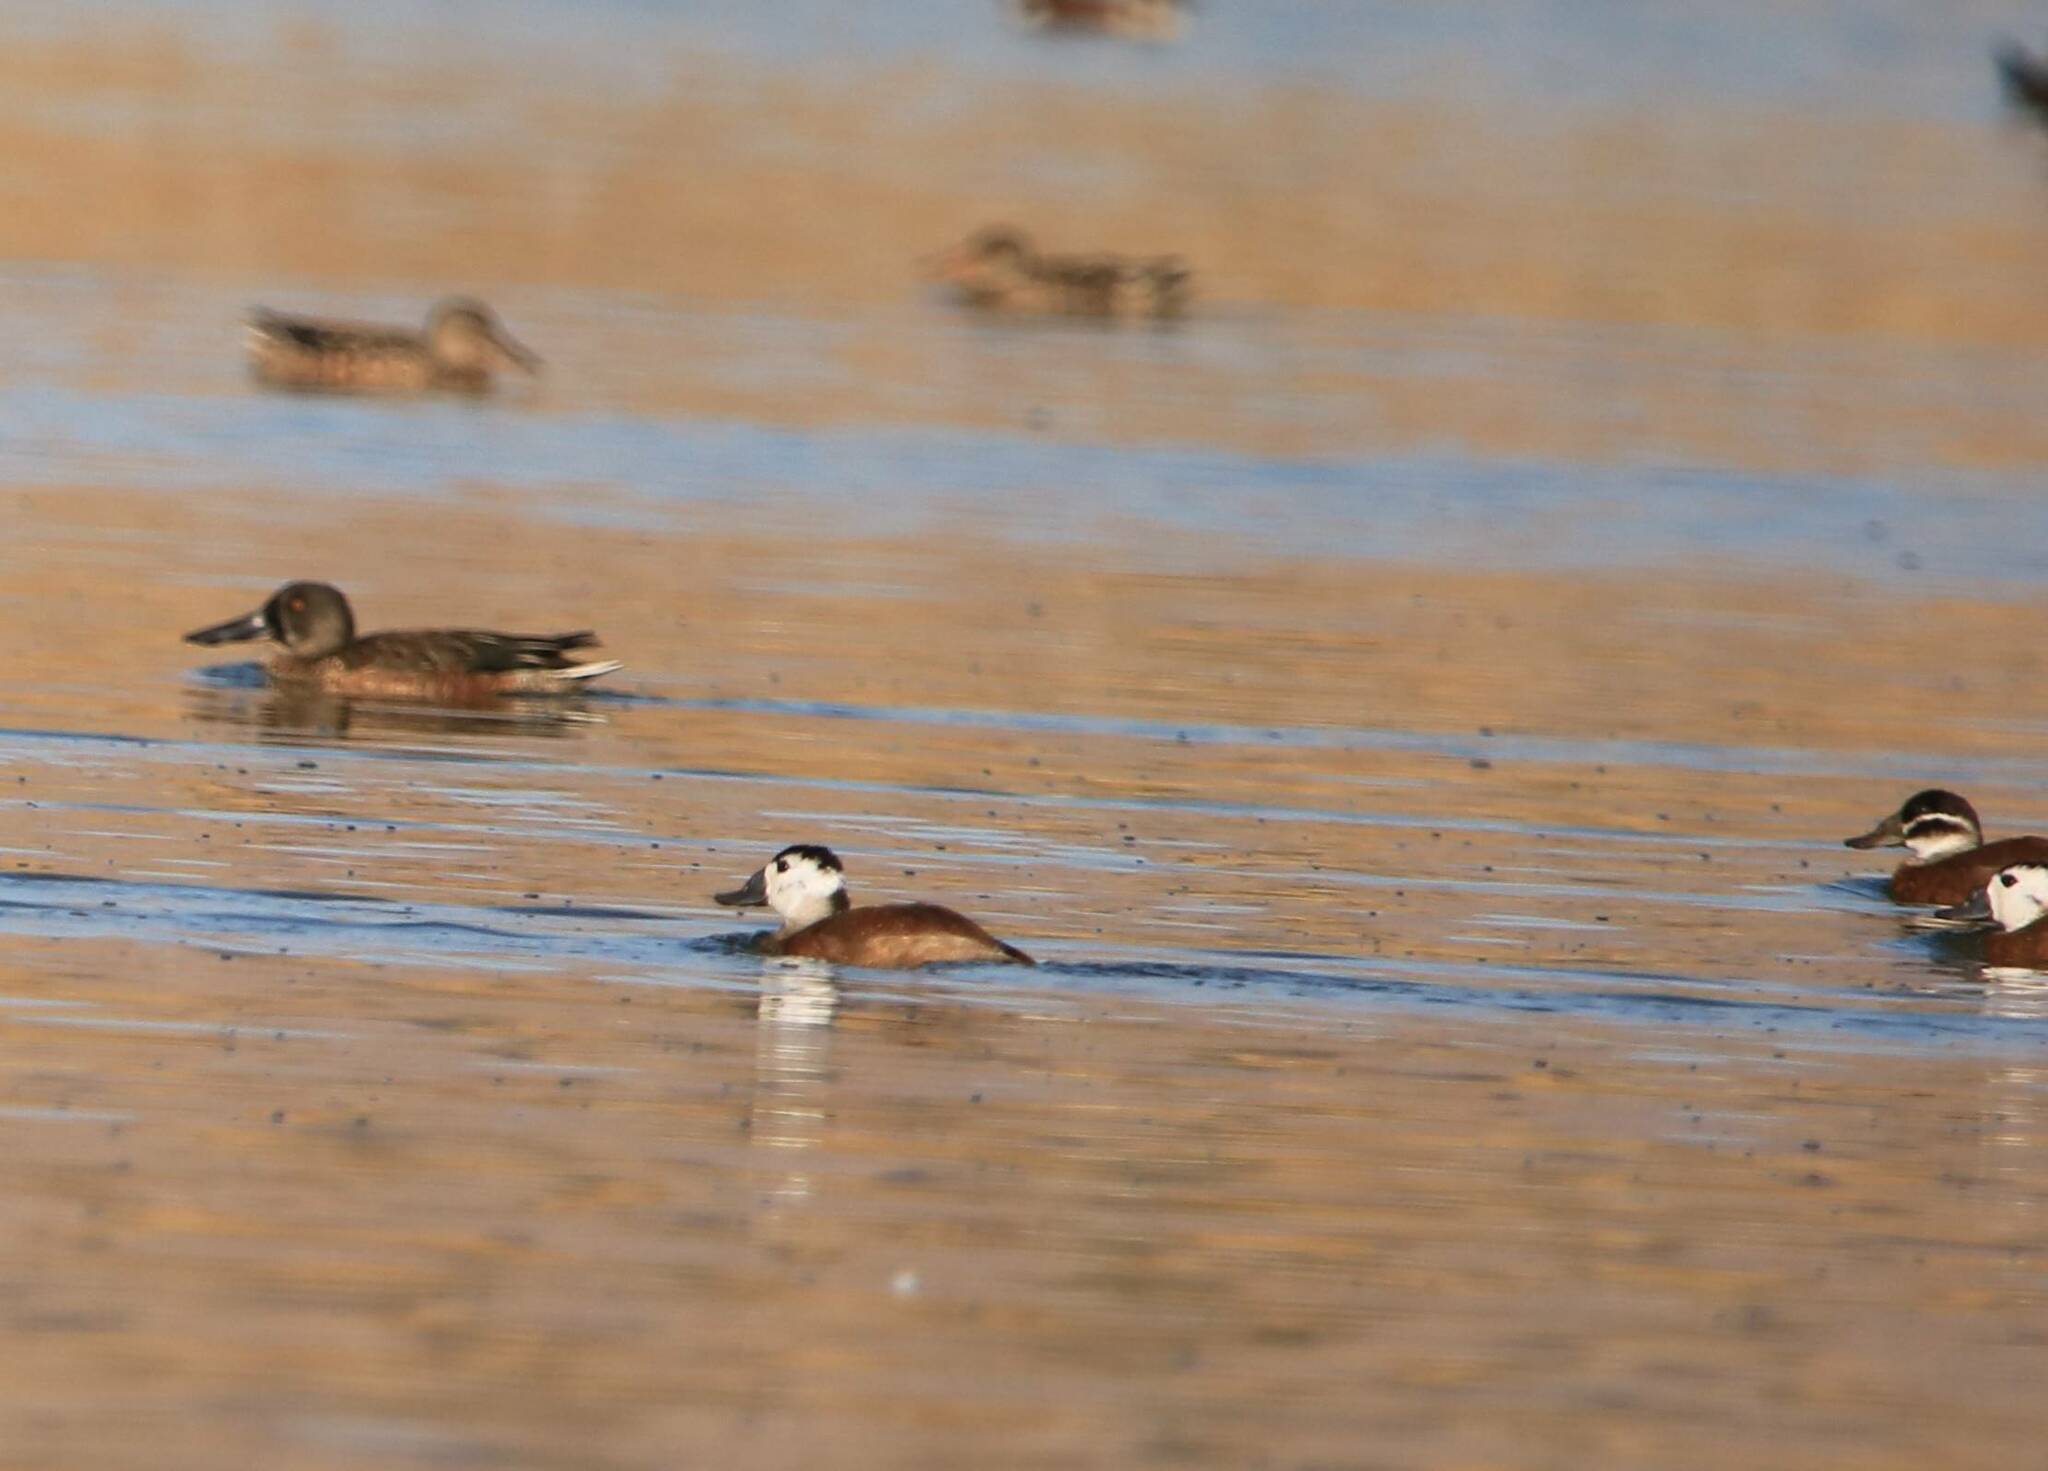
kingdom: Animalia
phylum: Chordata
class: Aves
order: Anseriformes
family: Anatidae
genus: Oxyura
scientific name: Oxyura leucocephala
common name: White-headed duck
